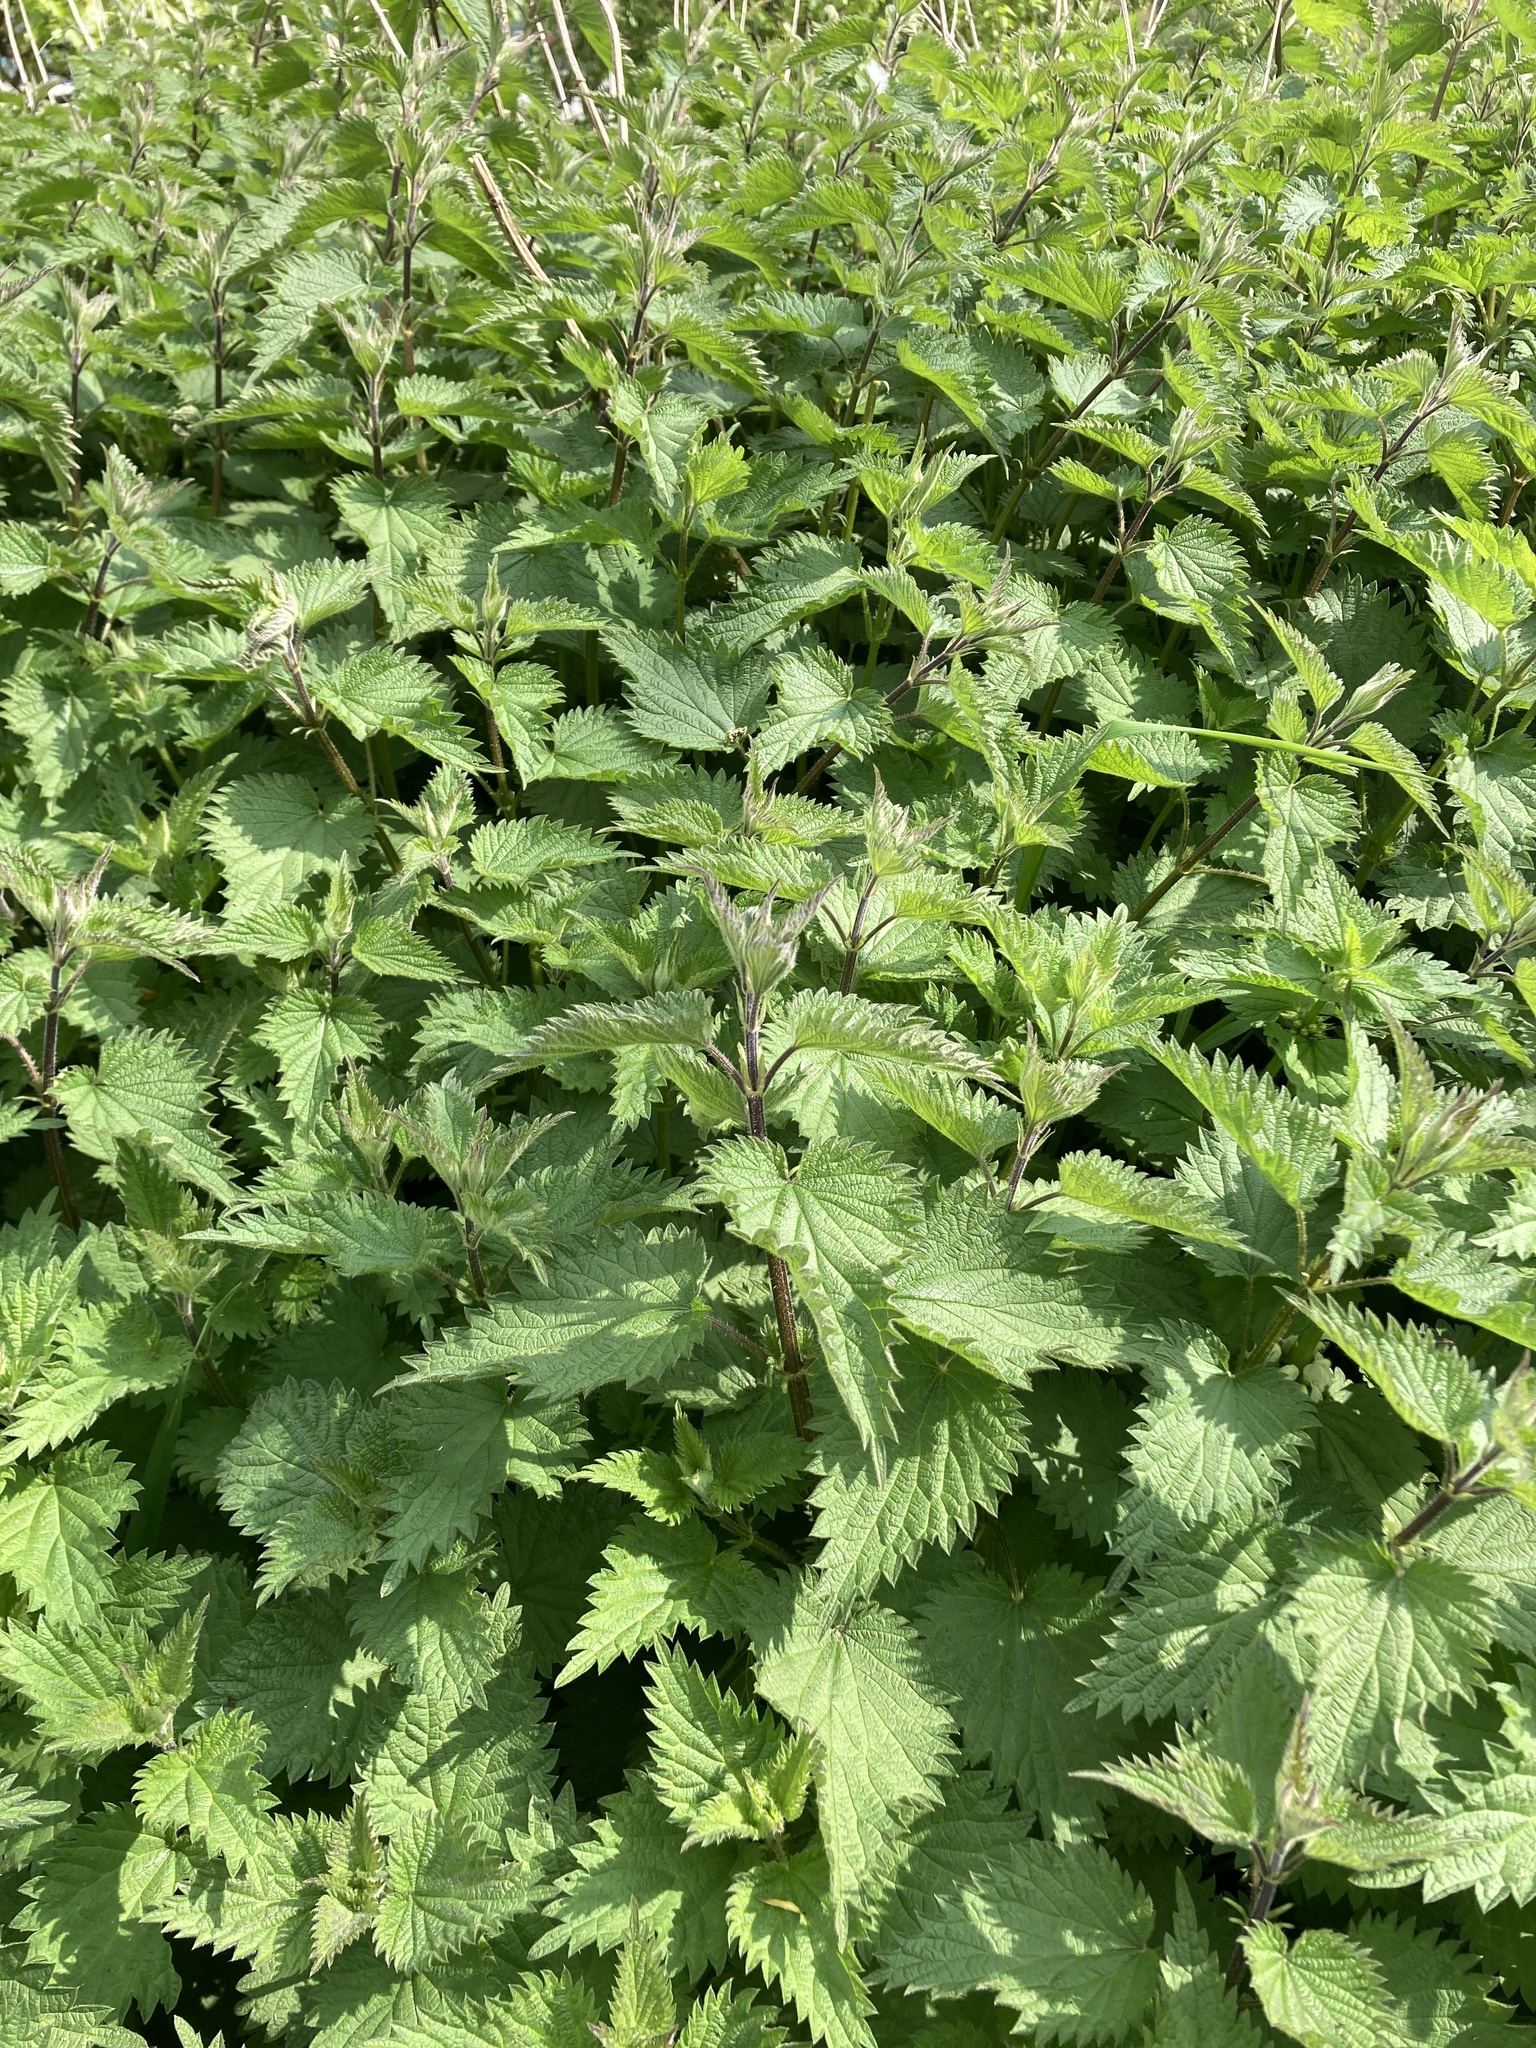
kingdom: Plantae
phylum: Tracheophyta
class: Magnoliopsida
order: Rosales
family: Urticaceae
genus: Urtica
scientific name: Urtica dioica
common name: Common nettle
